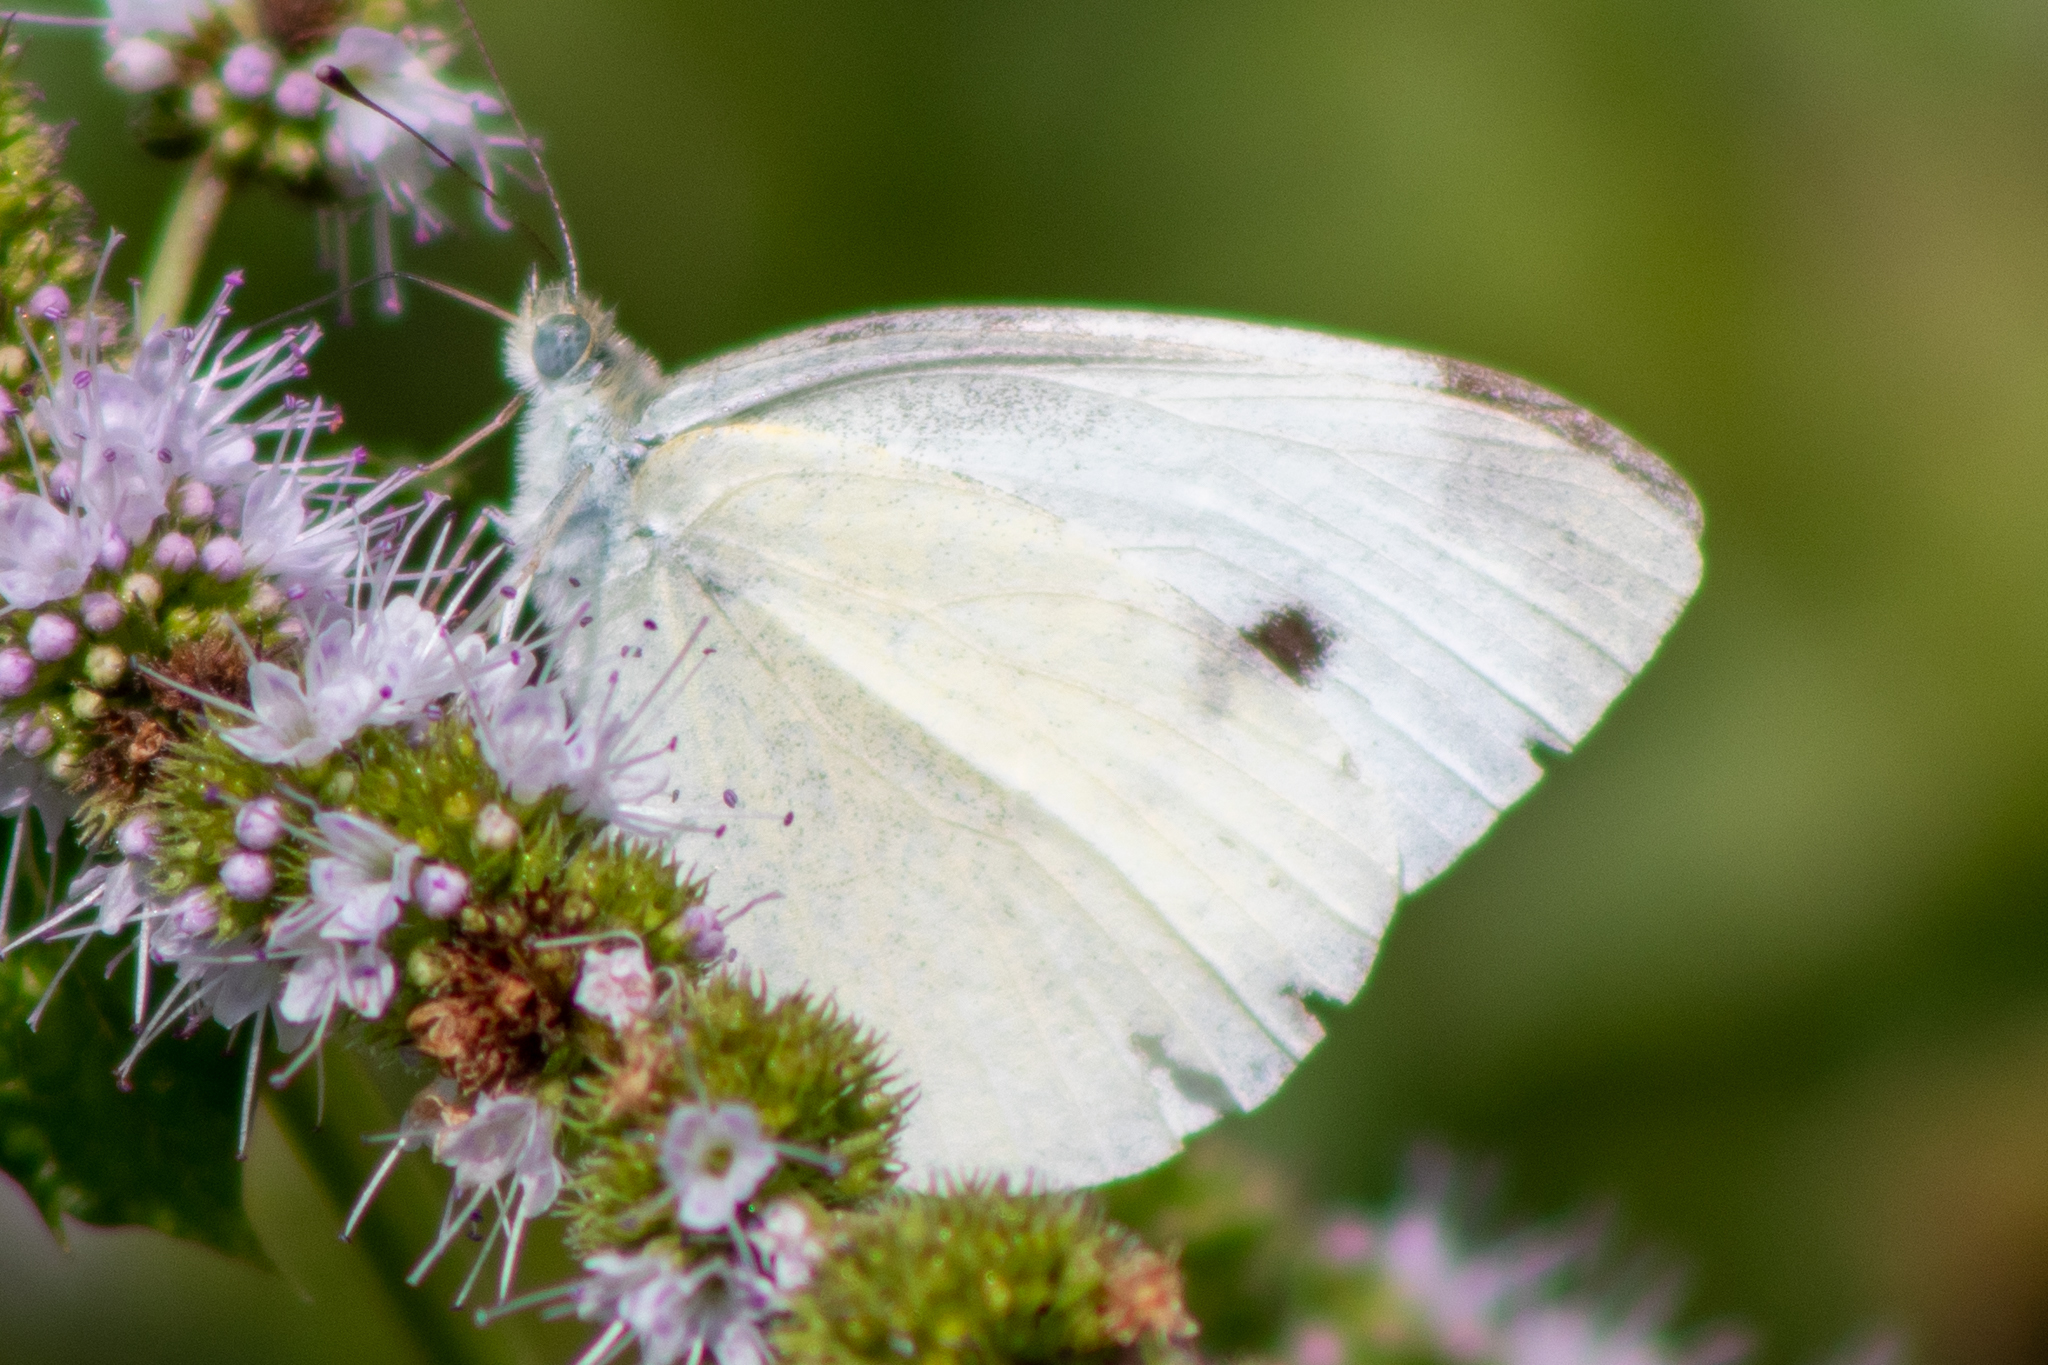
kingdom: Animalia
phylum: Arthropoda
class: Insecta
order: Lepidoptera
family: Pieridae
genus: Pieris
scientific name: Pieris rapae
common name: Small white
